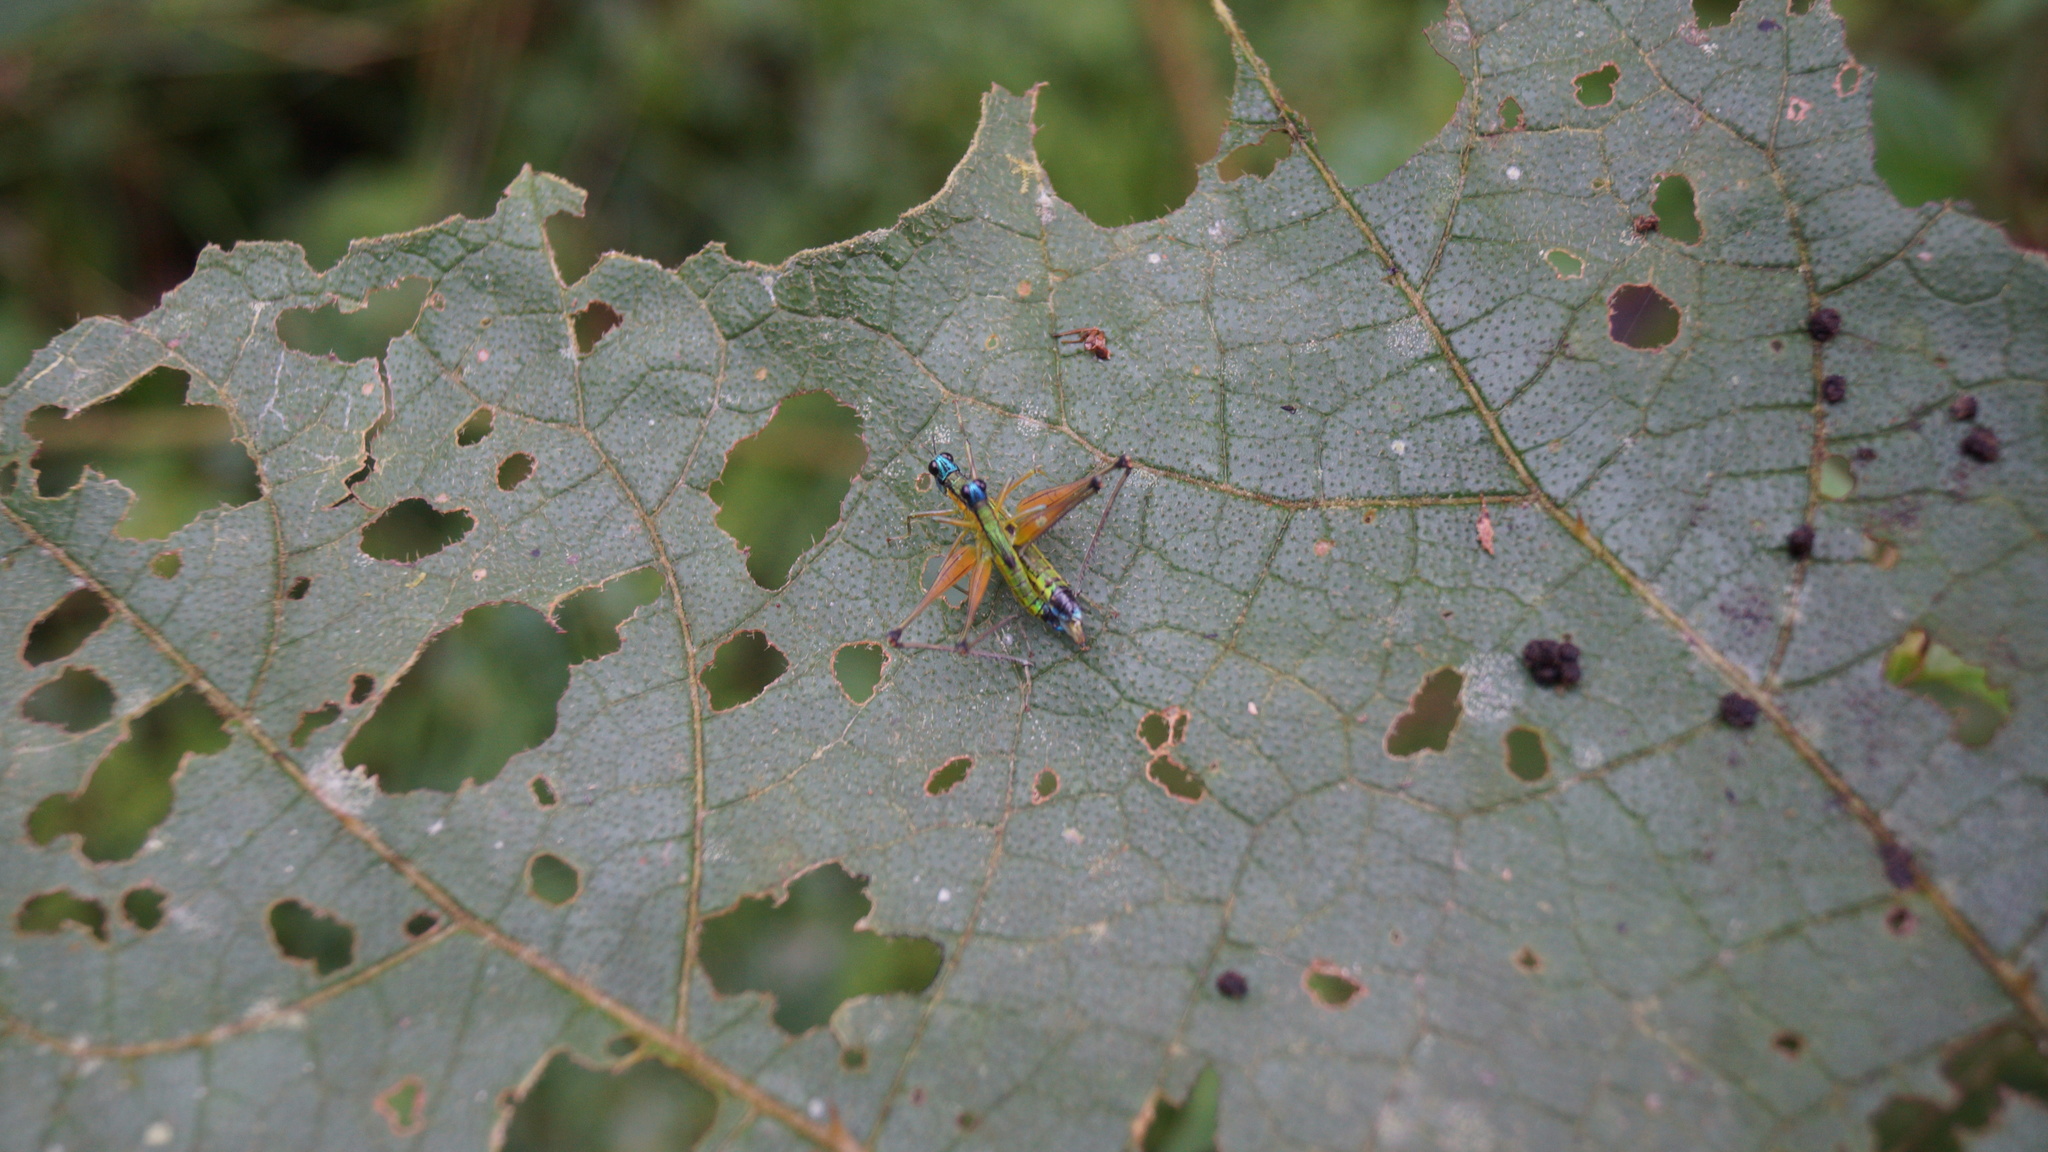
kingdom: Animalia
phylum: Arthropoda
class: Insecta
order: Orthoptera
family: Eumastacidae
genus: Eumastax
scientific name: Eumastax equatoriana
